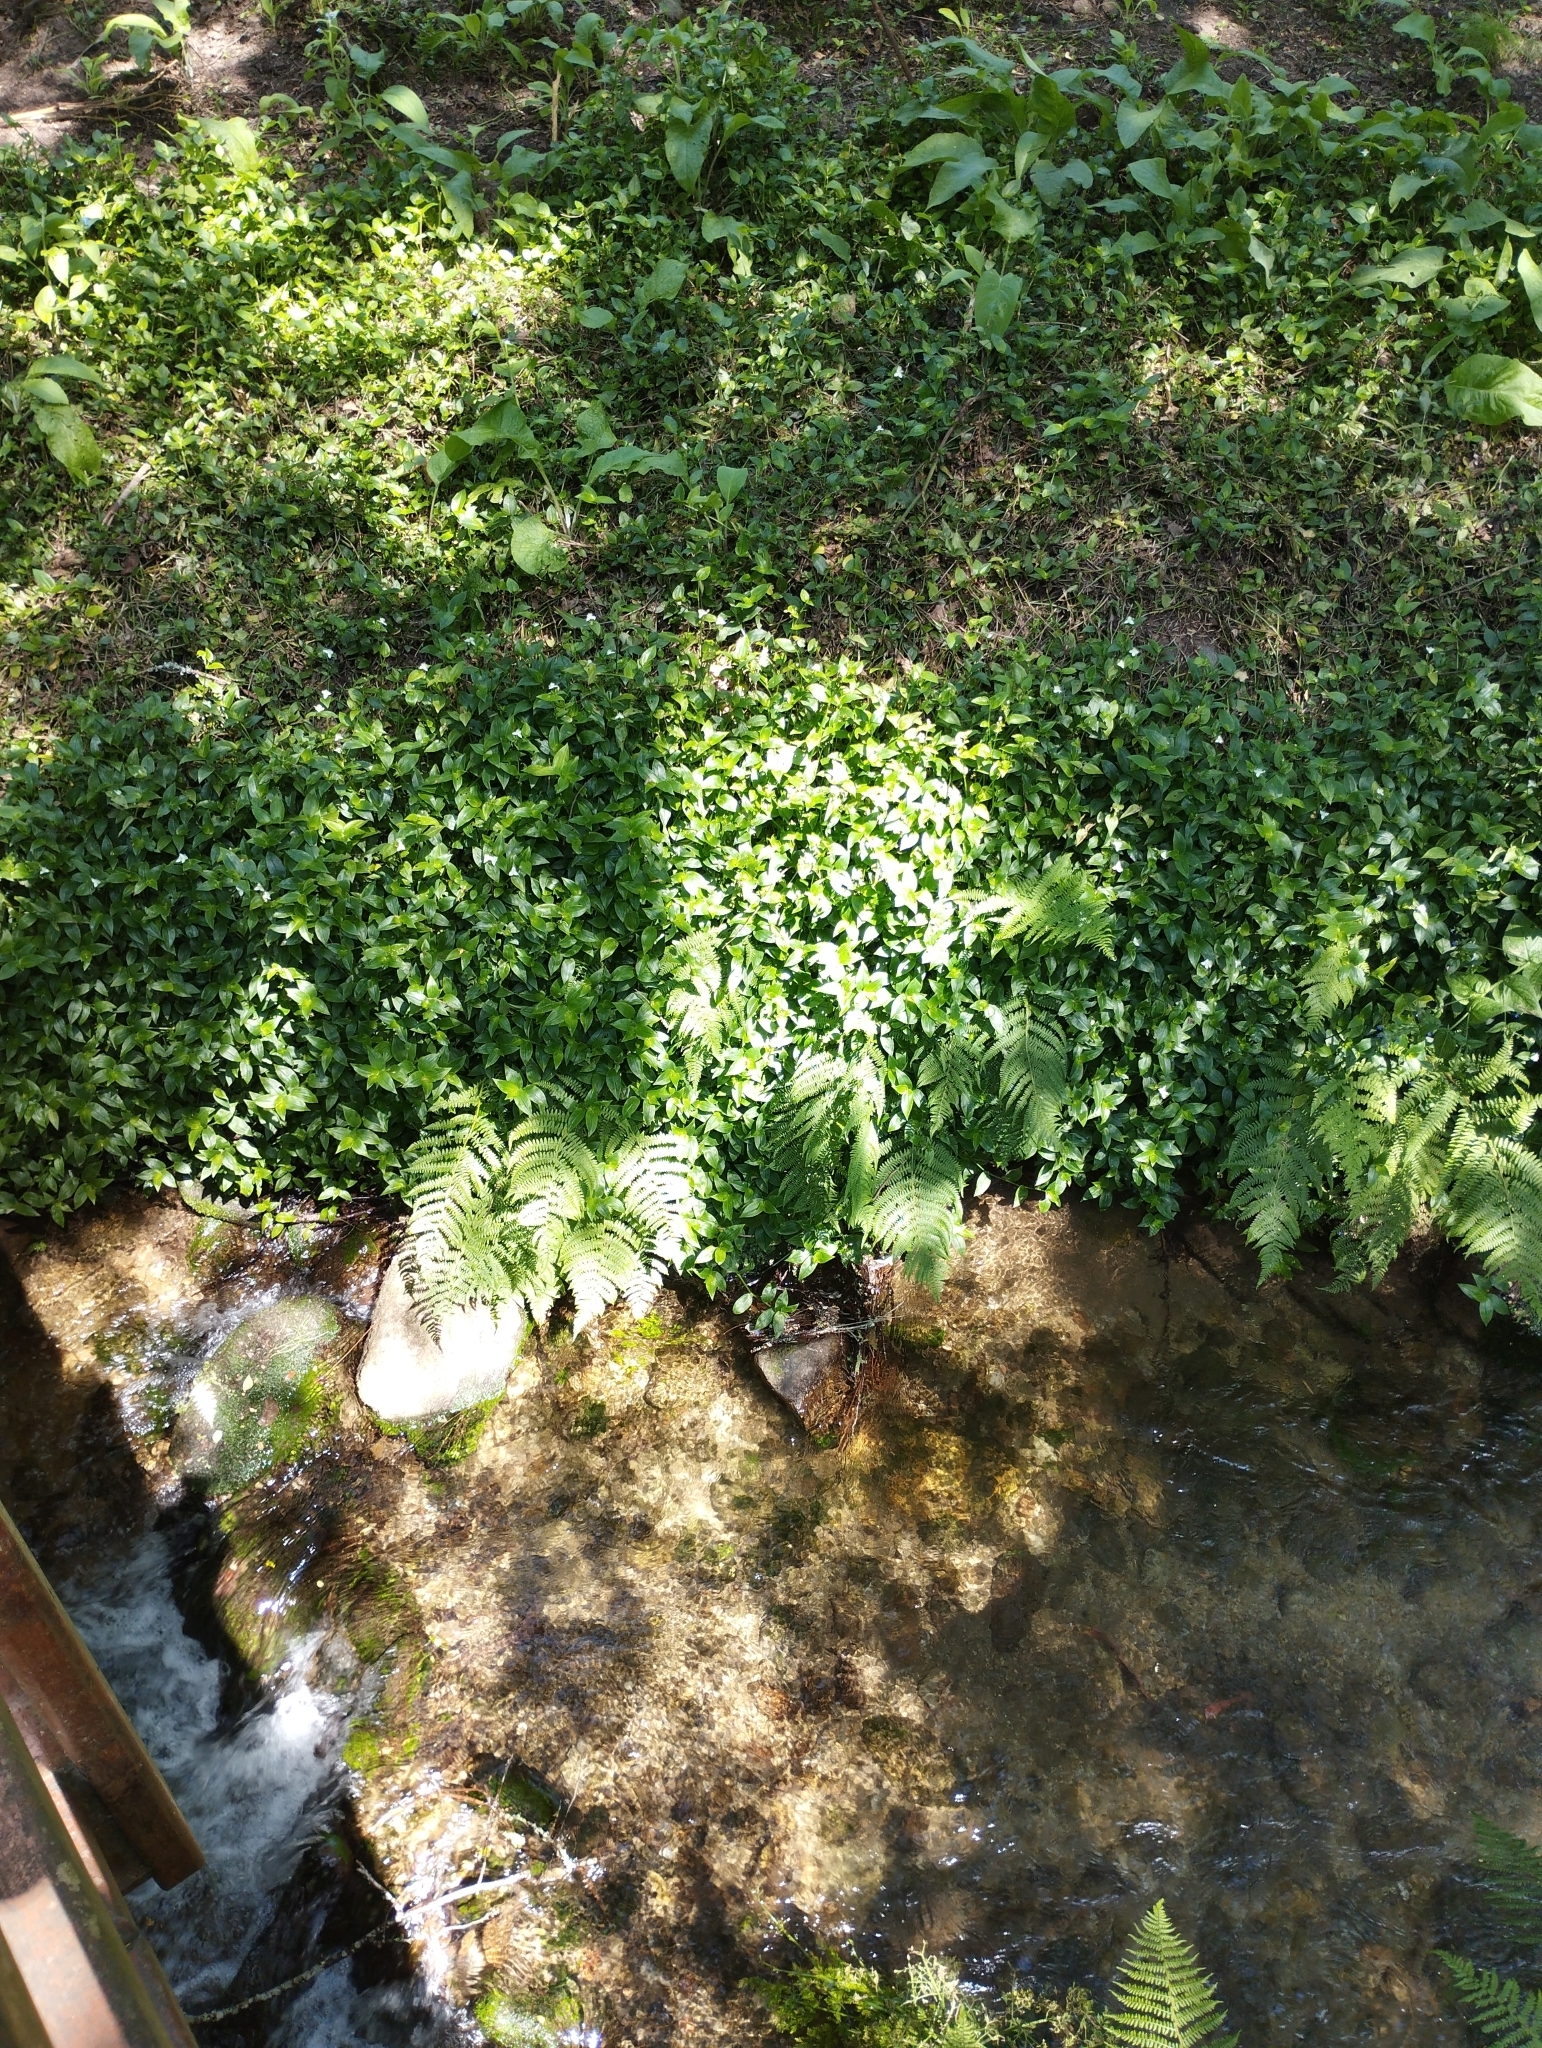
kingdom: Plantae
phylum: Tracheophyta
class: Liliopsida
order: Commelinales
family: Commelinaceae
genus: Tradescantia
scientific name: Tradescantia fluminensis
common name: Wandering-jew
